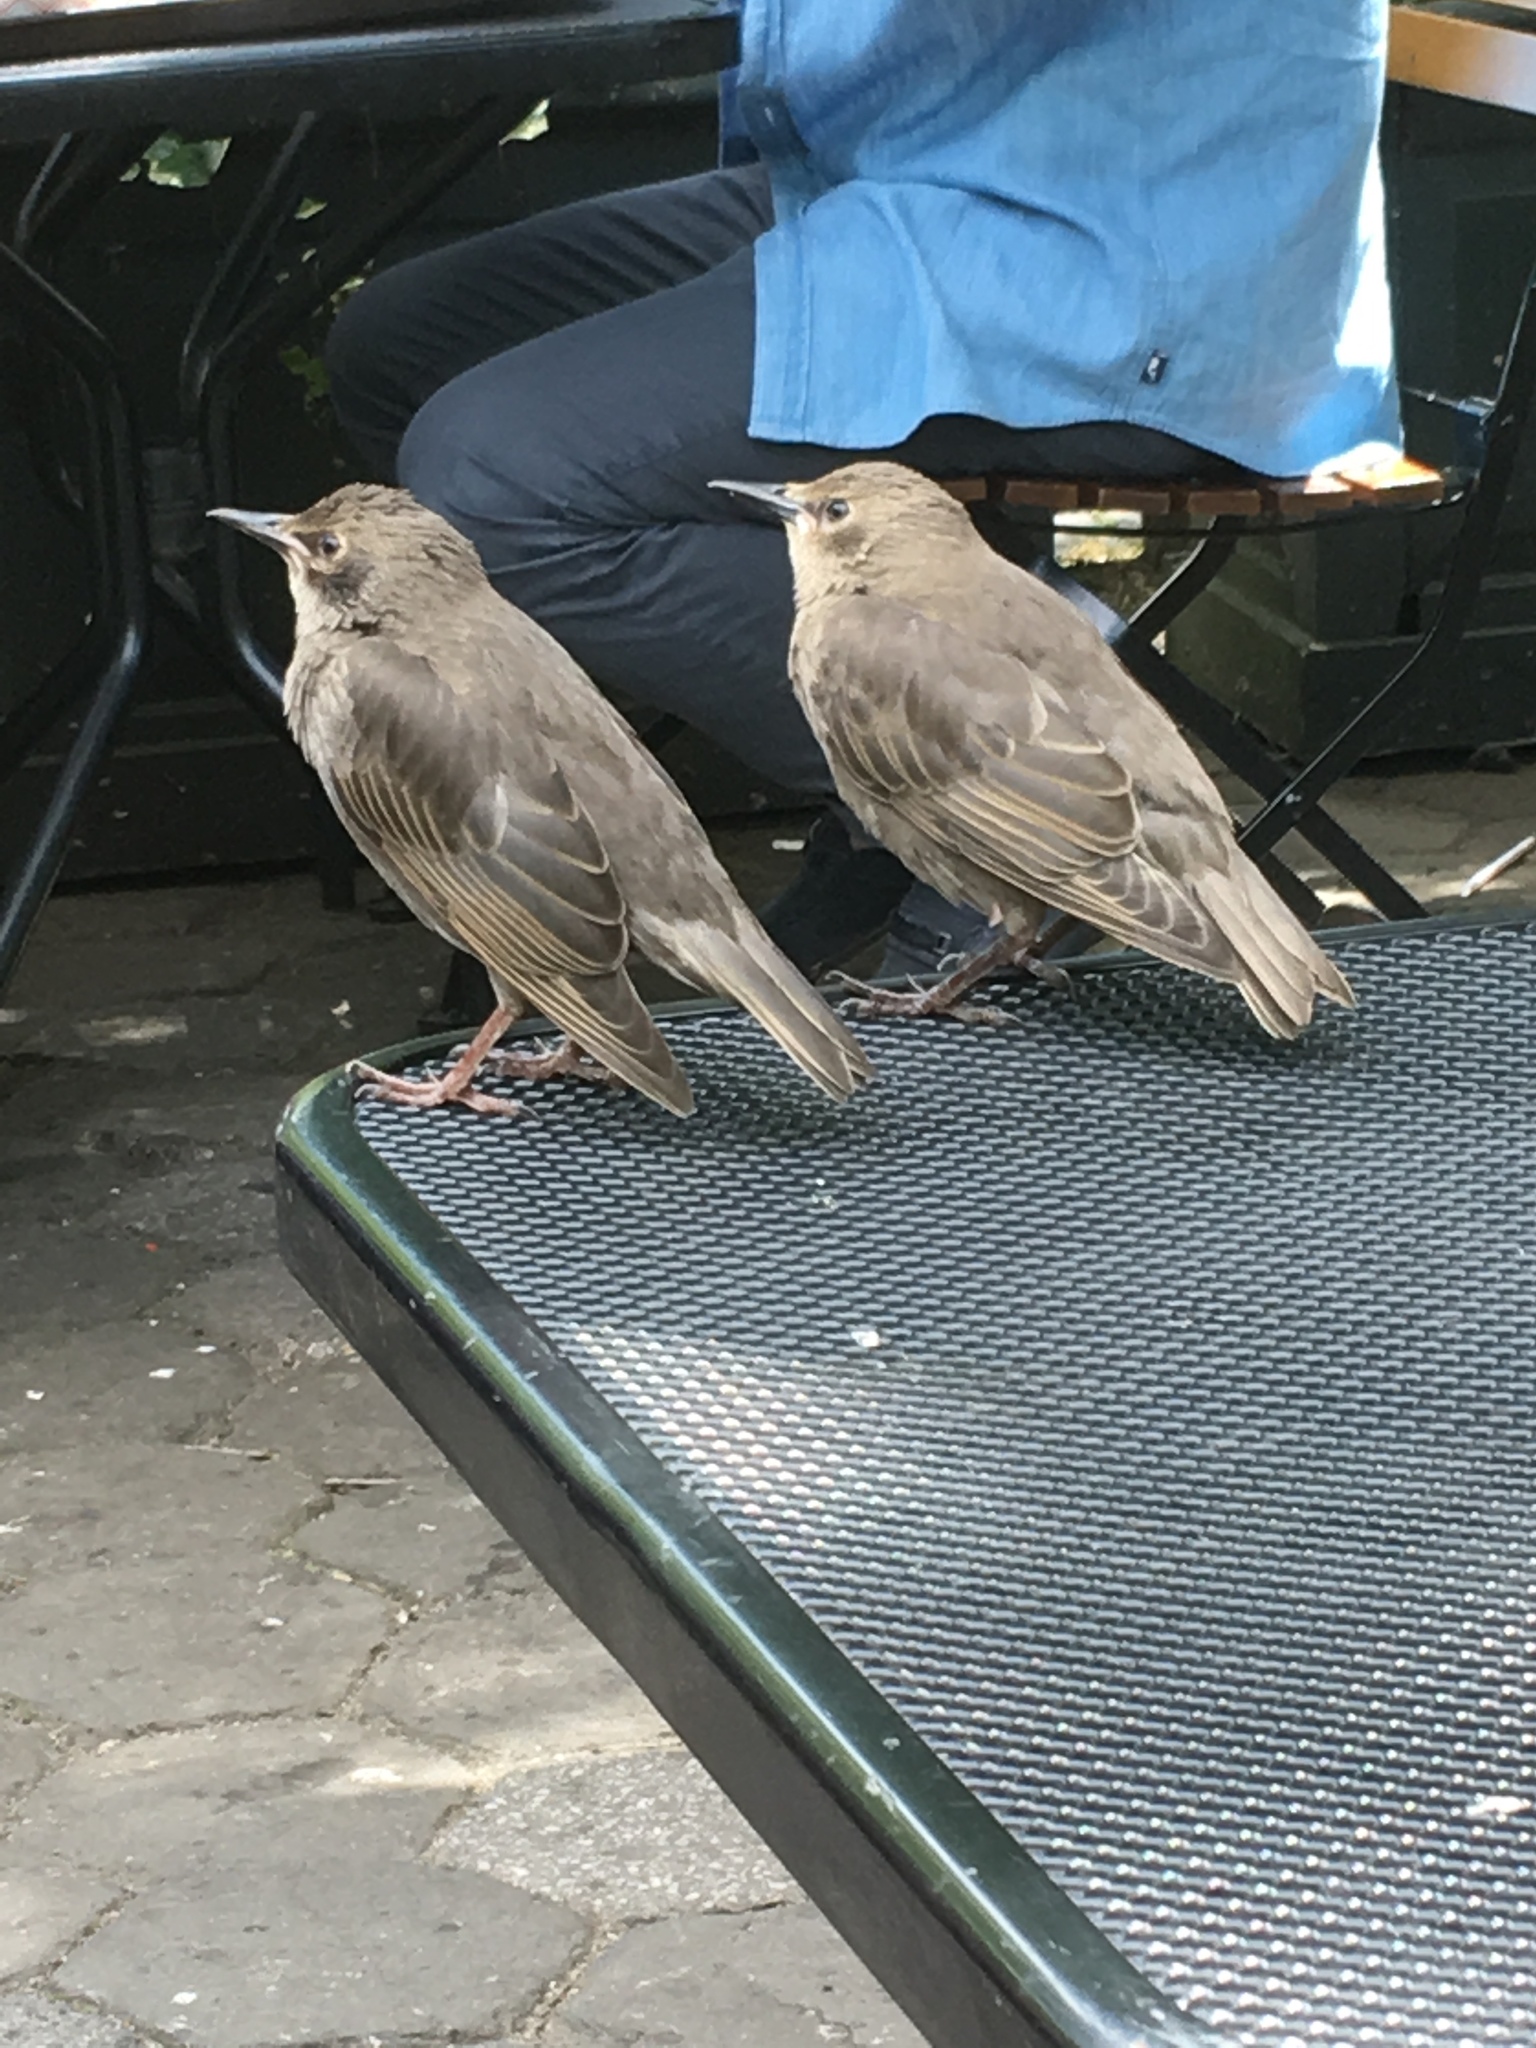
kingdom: Animalia
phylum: Chordata
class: Aves
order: Passeriformes
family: Sturnidae
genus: Sturnus
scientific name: Sturnus vulgaris
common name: Common starling
